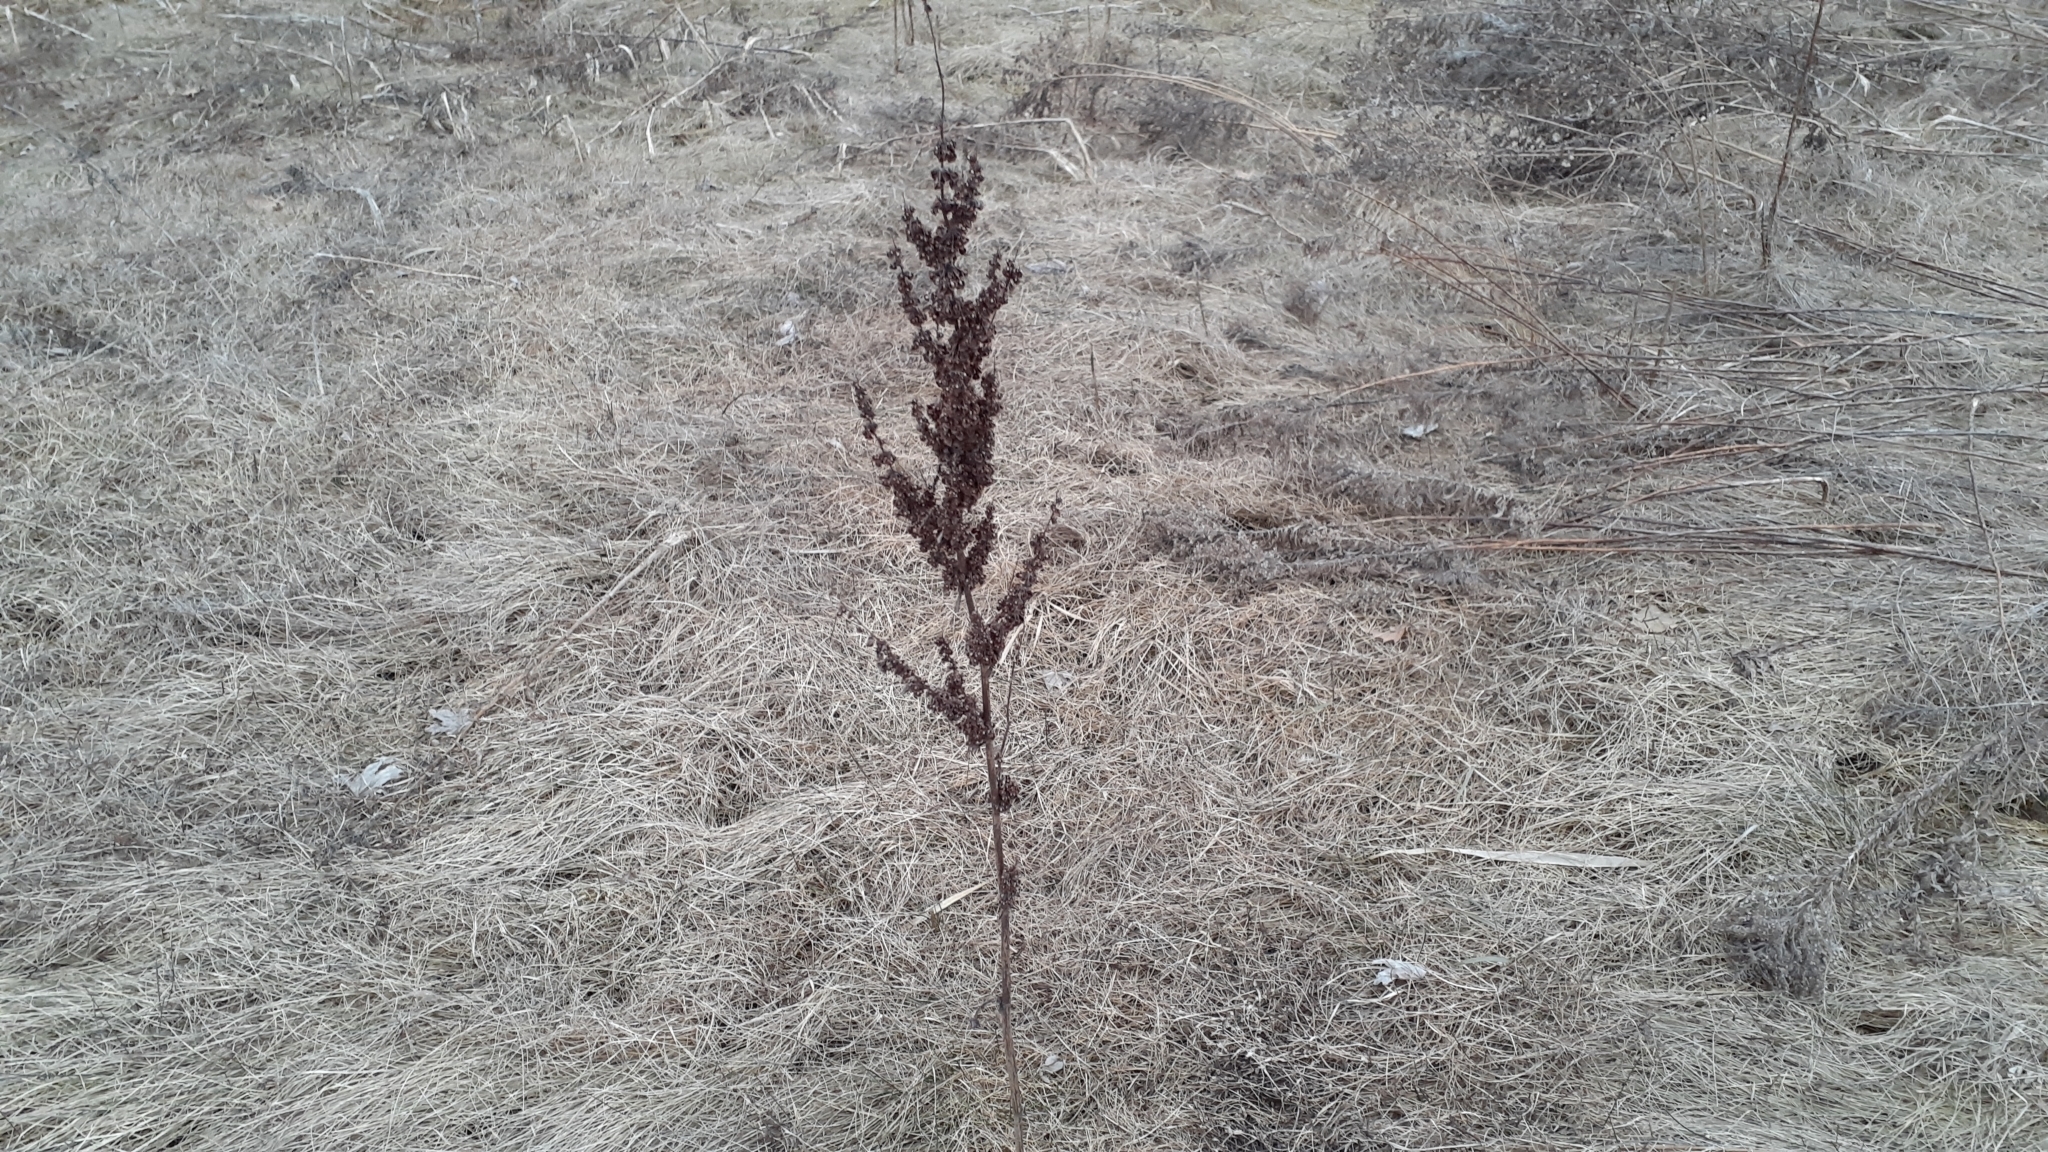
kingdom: Plantae
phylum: Tracheophyta
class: Magnoliopsida
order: Caryophyllales
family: Polygonaceae
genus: Rumex
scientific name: Rumex crispus
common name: Curled dock
